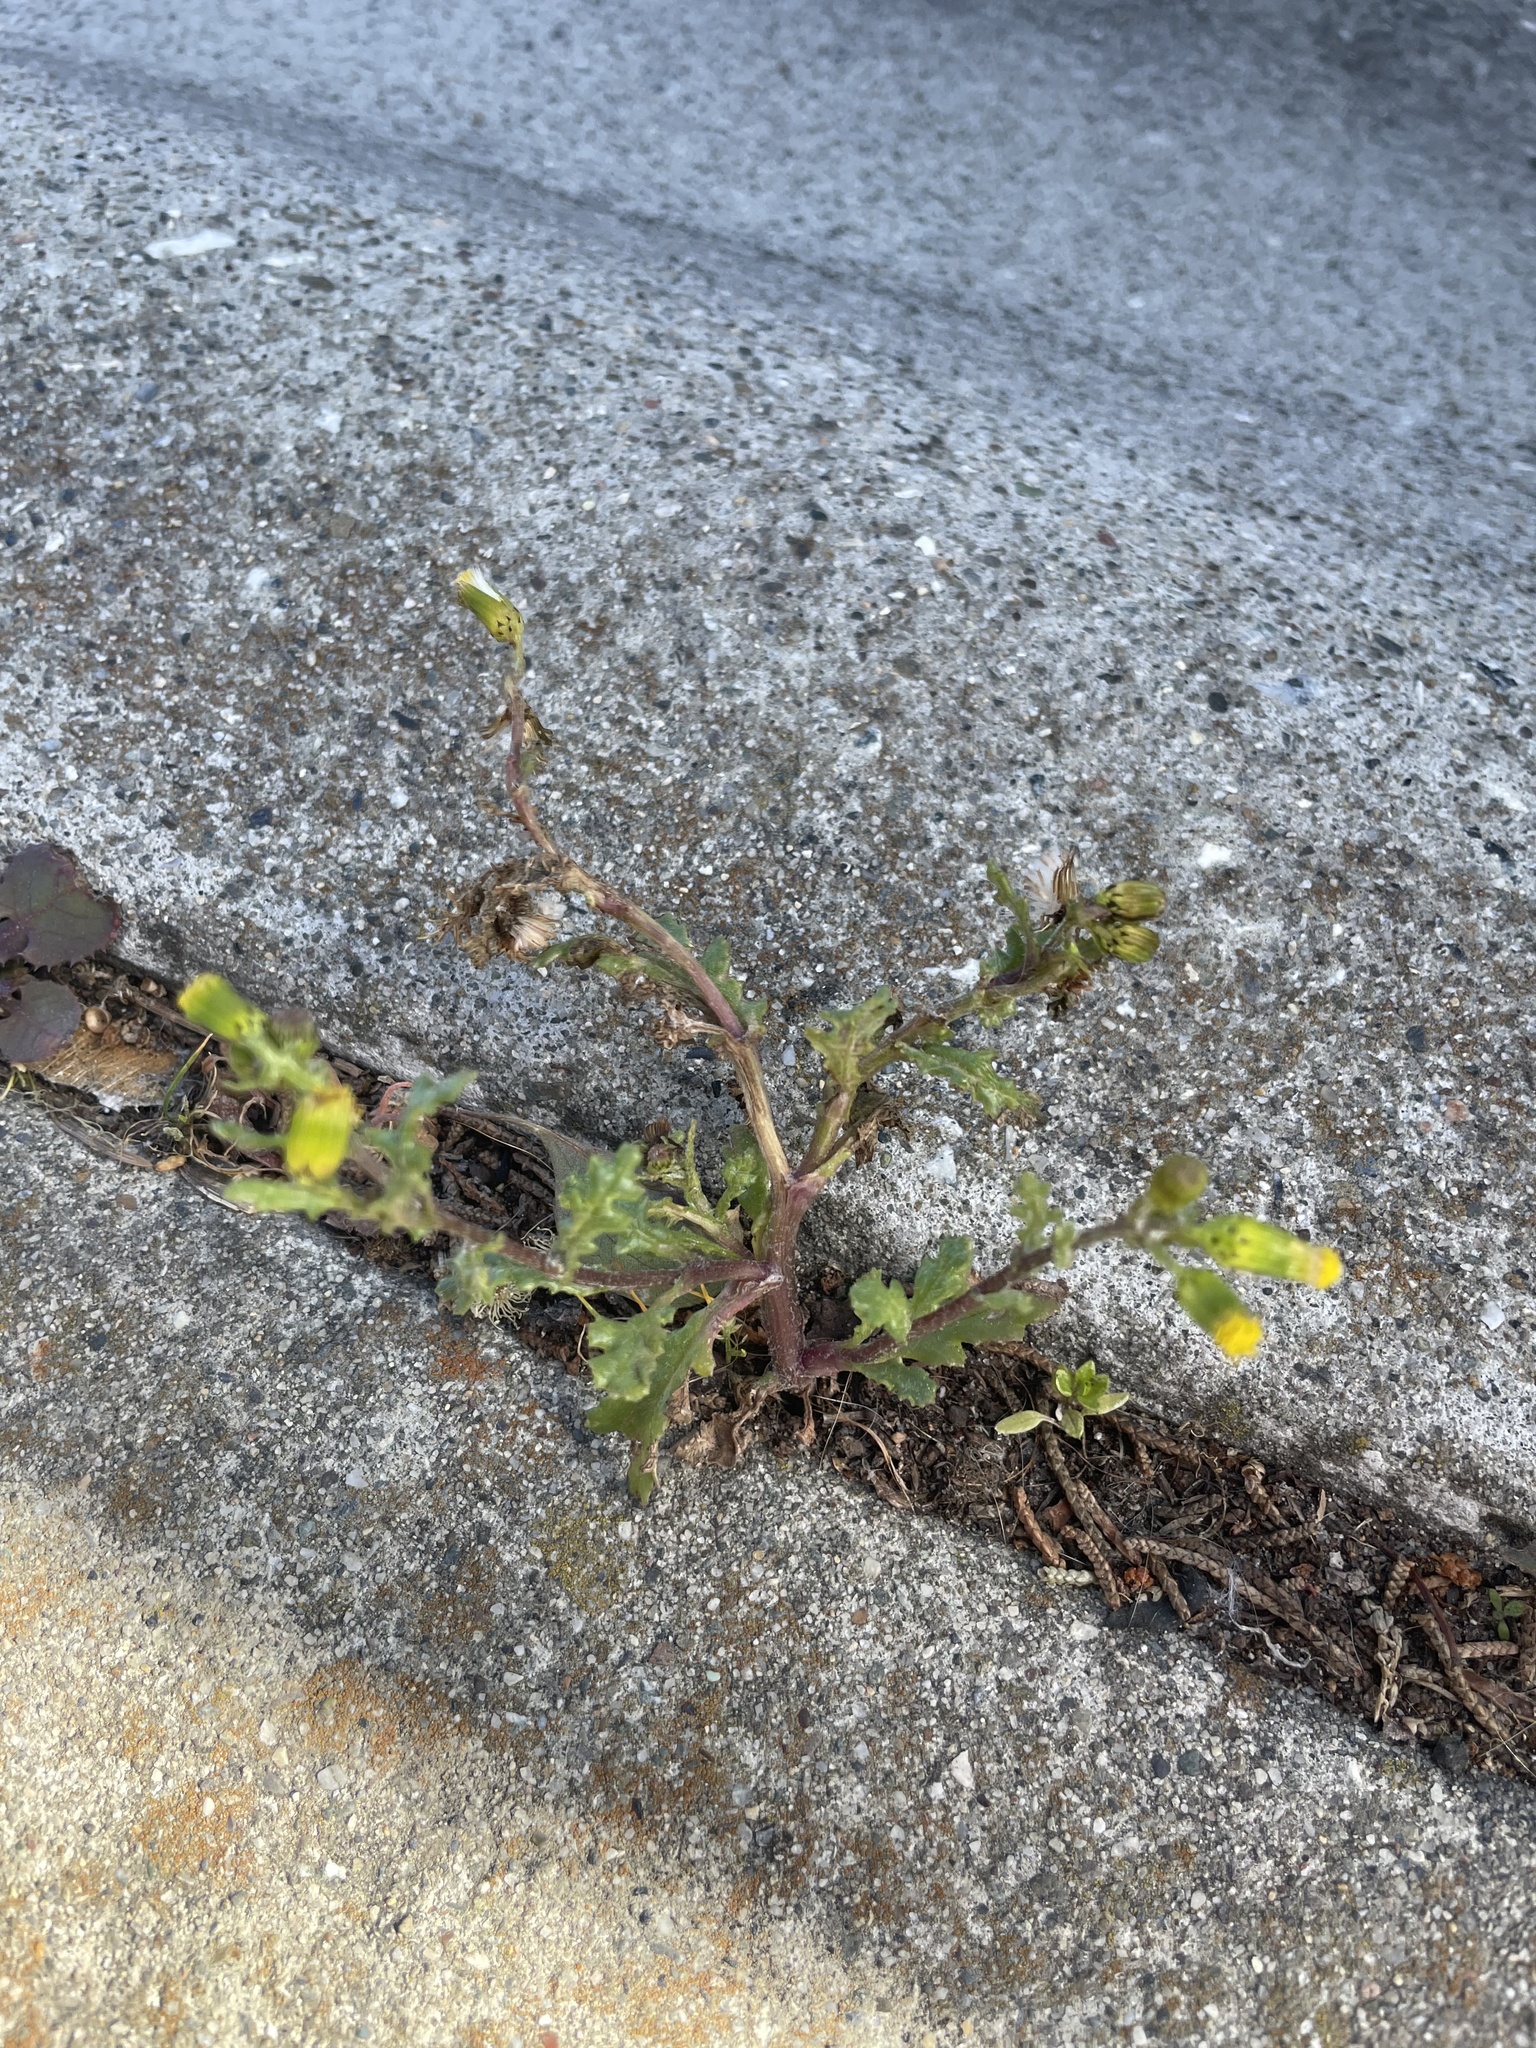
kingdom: Plantae
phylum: Tracheophyta
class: Magnoliopsida
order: Asterales
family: Asteraceae
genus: Senecio
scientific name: Senecio vulgaris
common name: Old-man-in-the-spring
